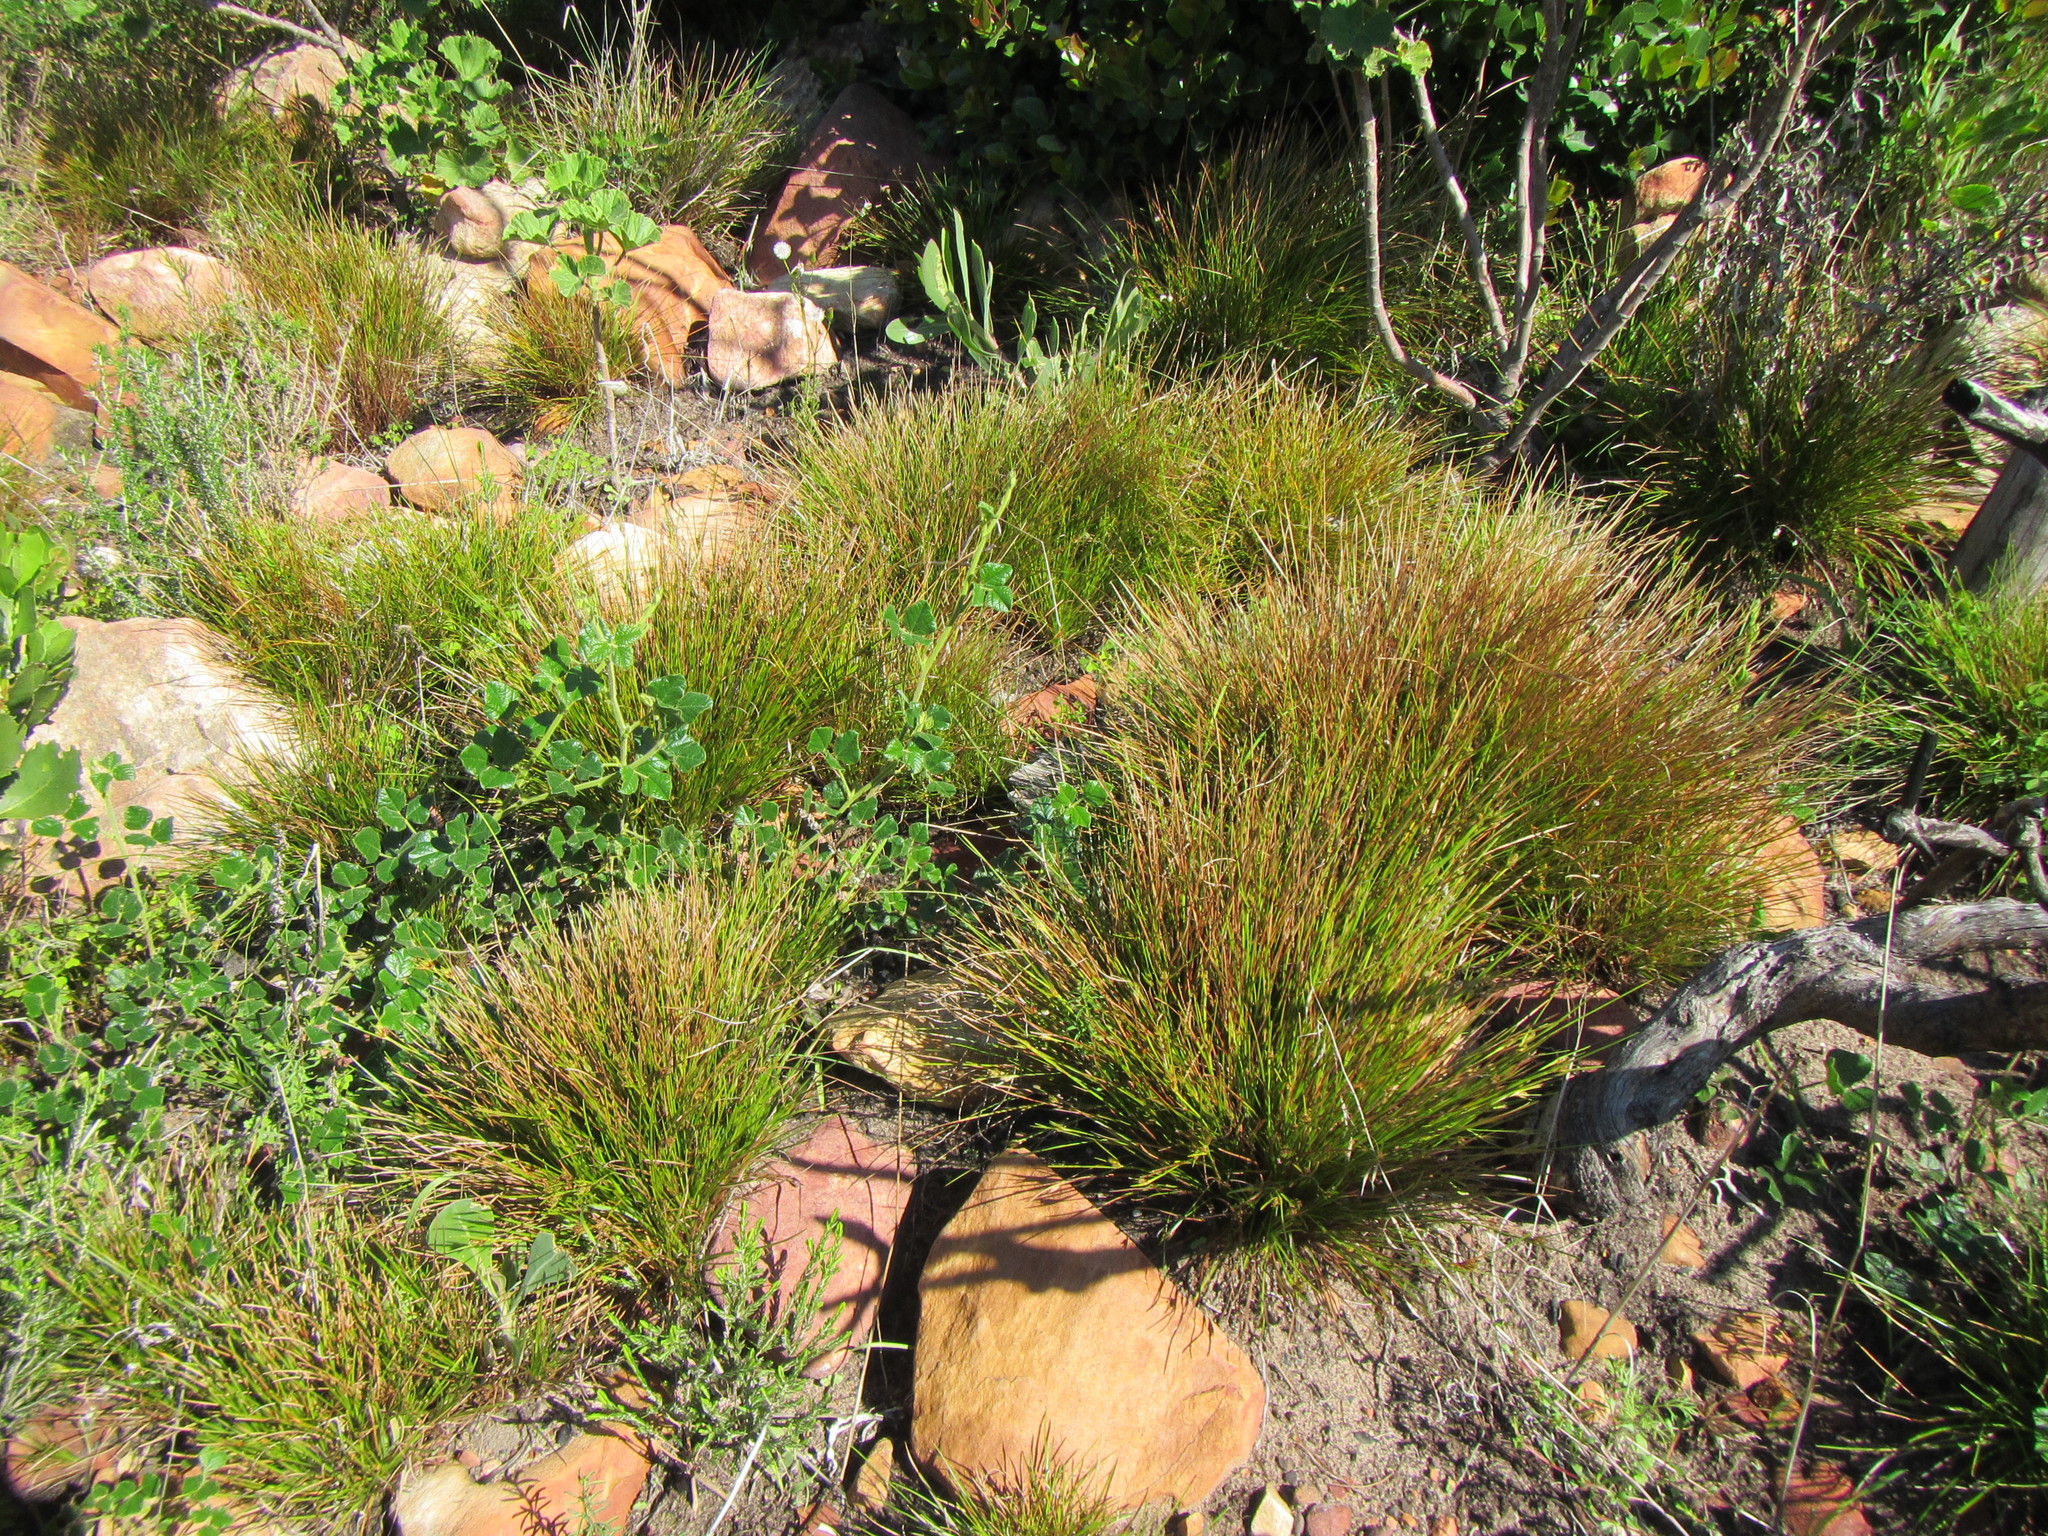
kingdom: Plantae
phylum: Tracheophyta
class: Liliopsida
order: Poales
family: Cyperaceae
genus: Ficinia
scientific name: Ficinia anceps
